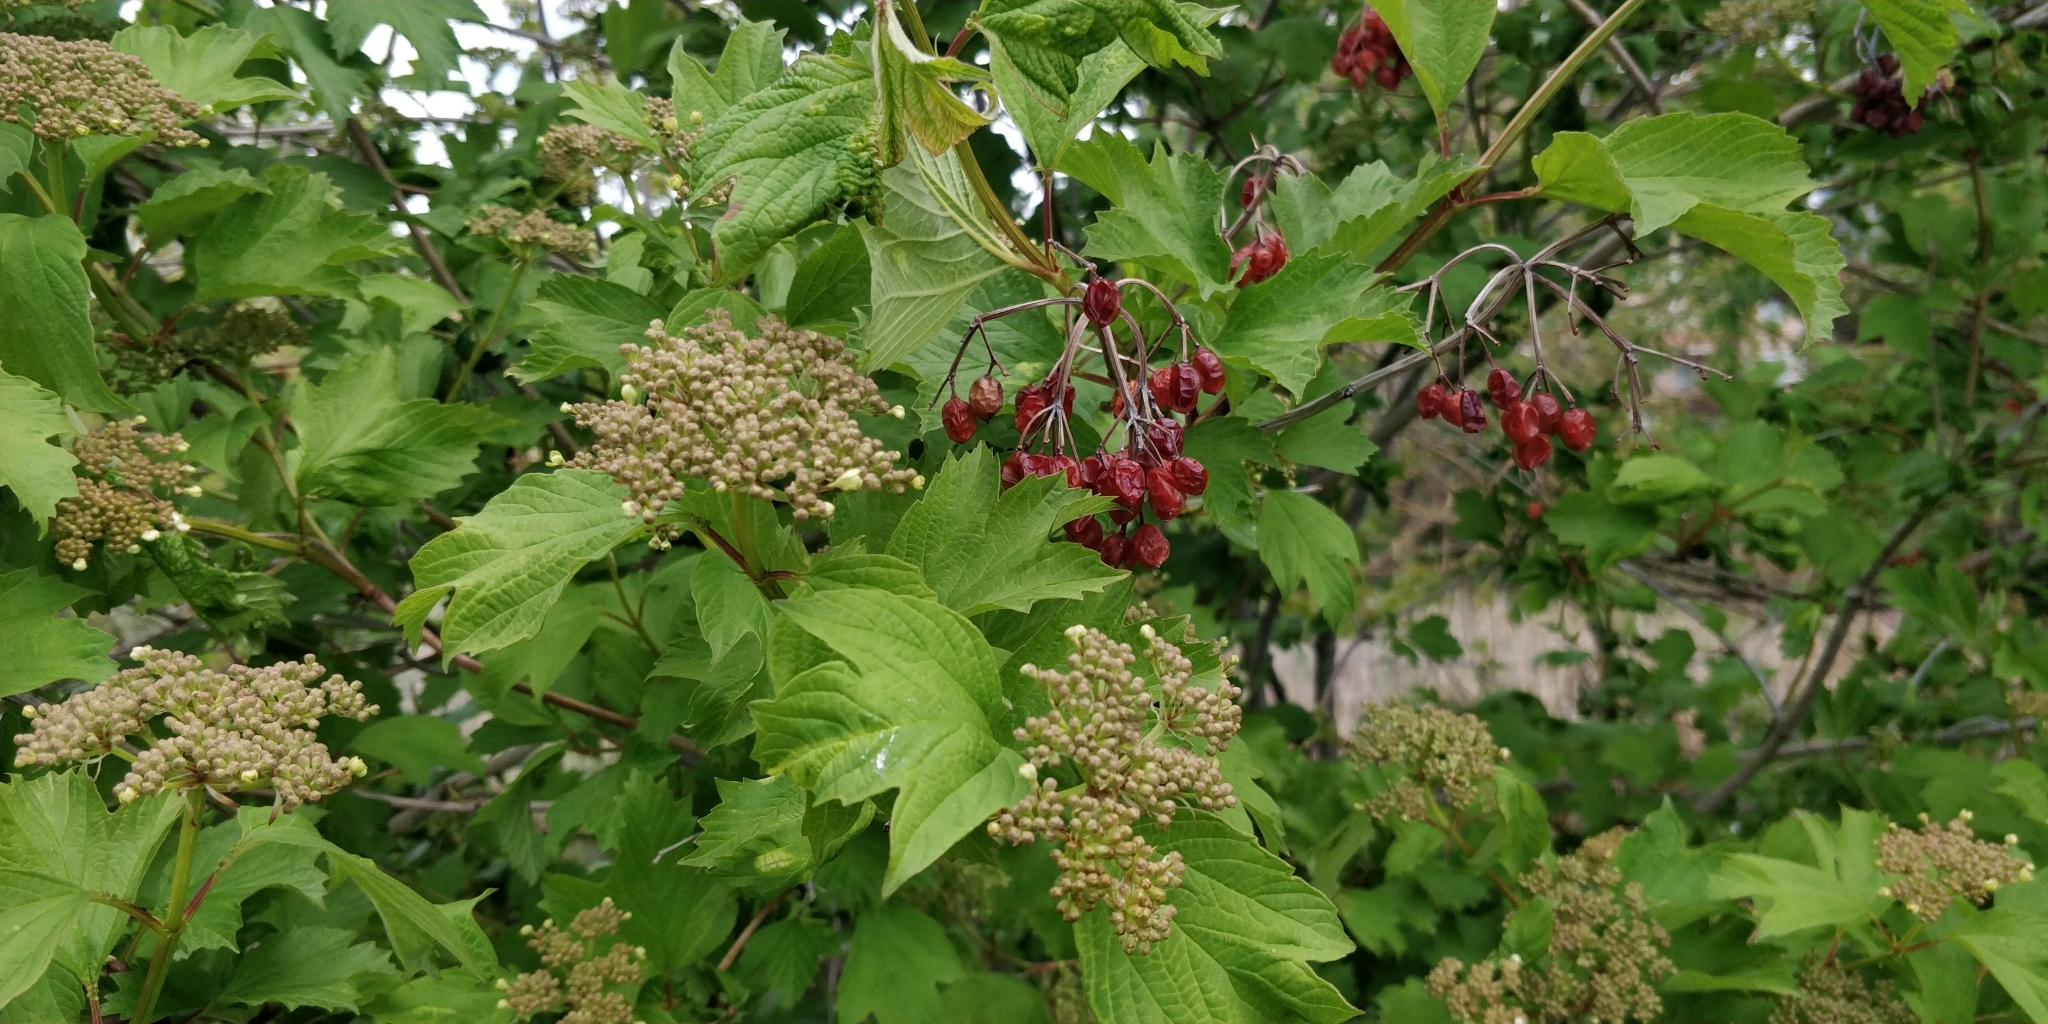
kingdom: Plantae
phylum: Tracheophyta
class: Magnoliopsida
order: Dipsacales
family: Viburnaceae
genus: Viburnum
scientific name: Viburnum opulus
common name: Guelder-rose
